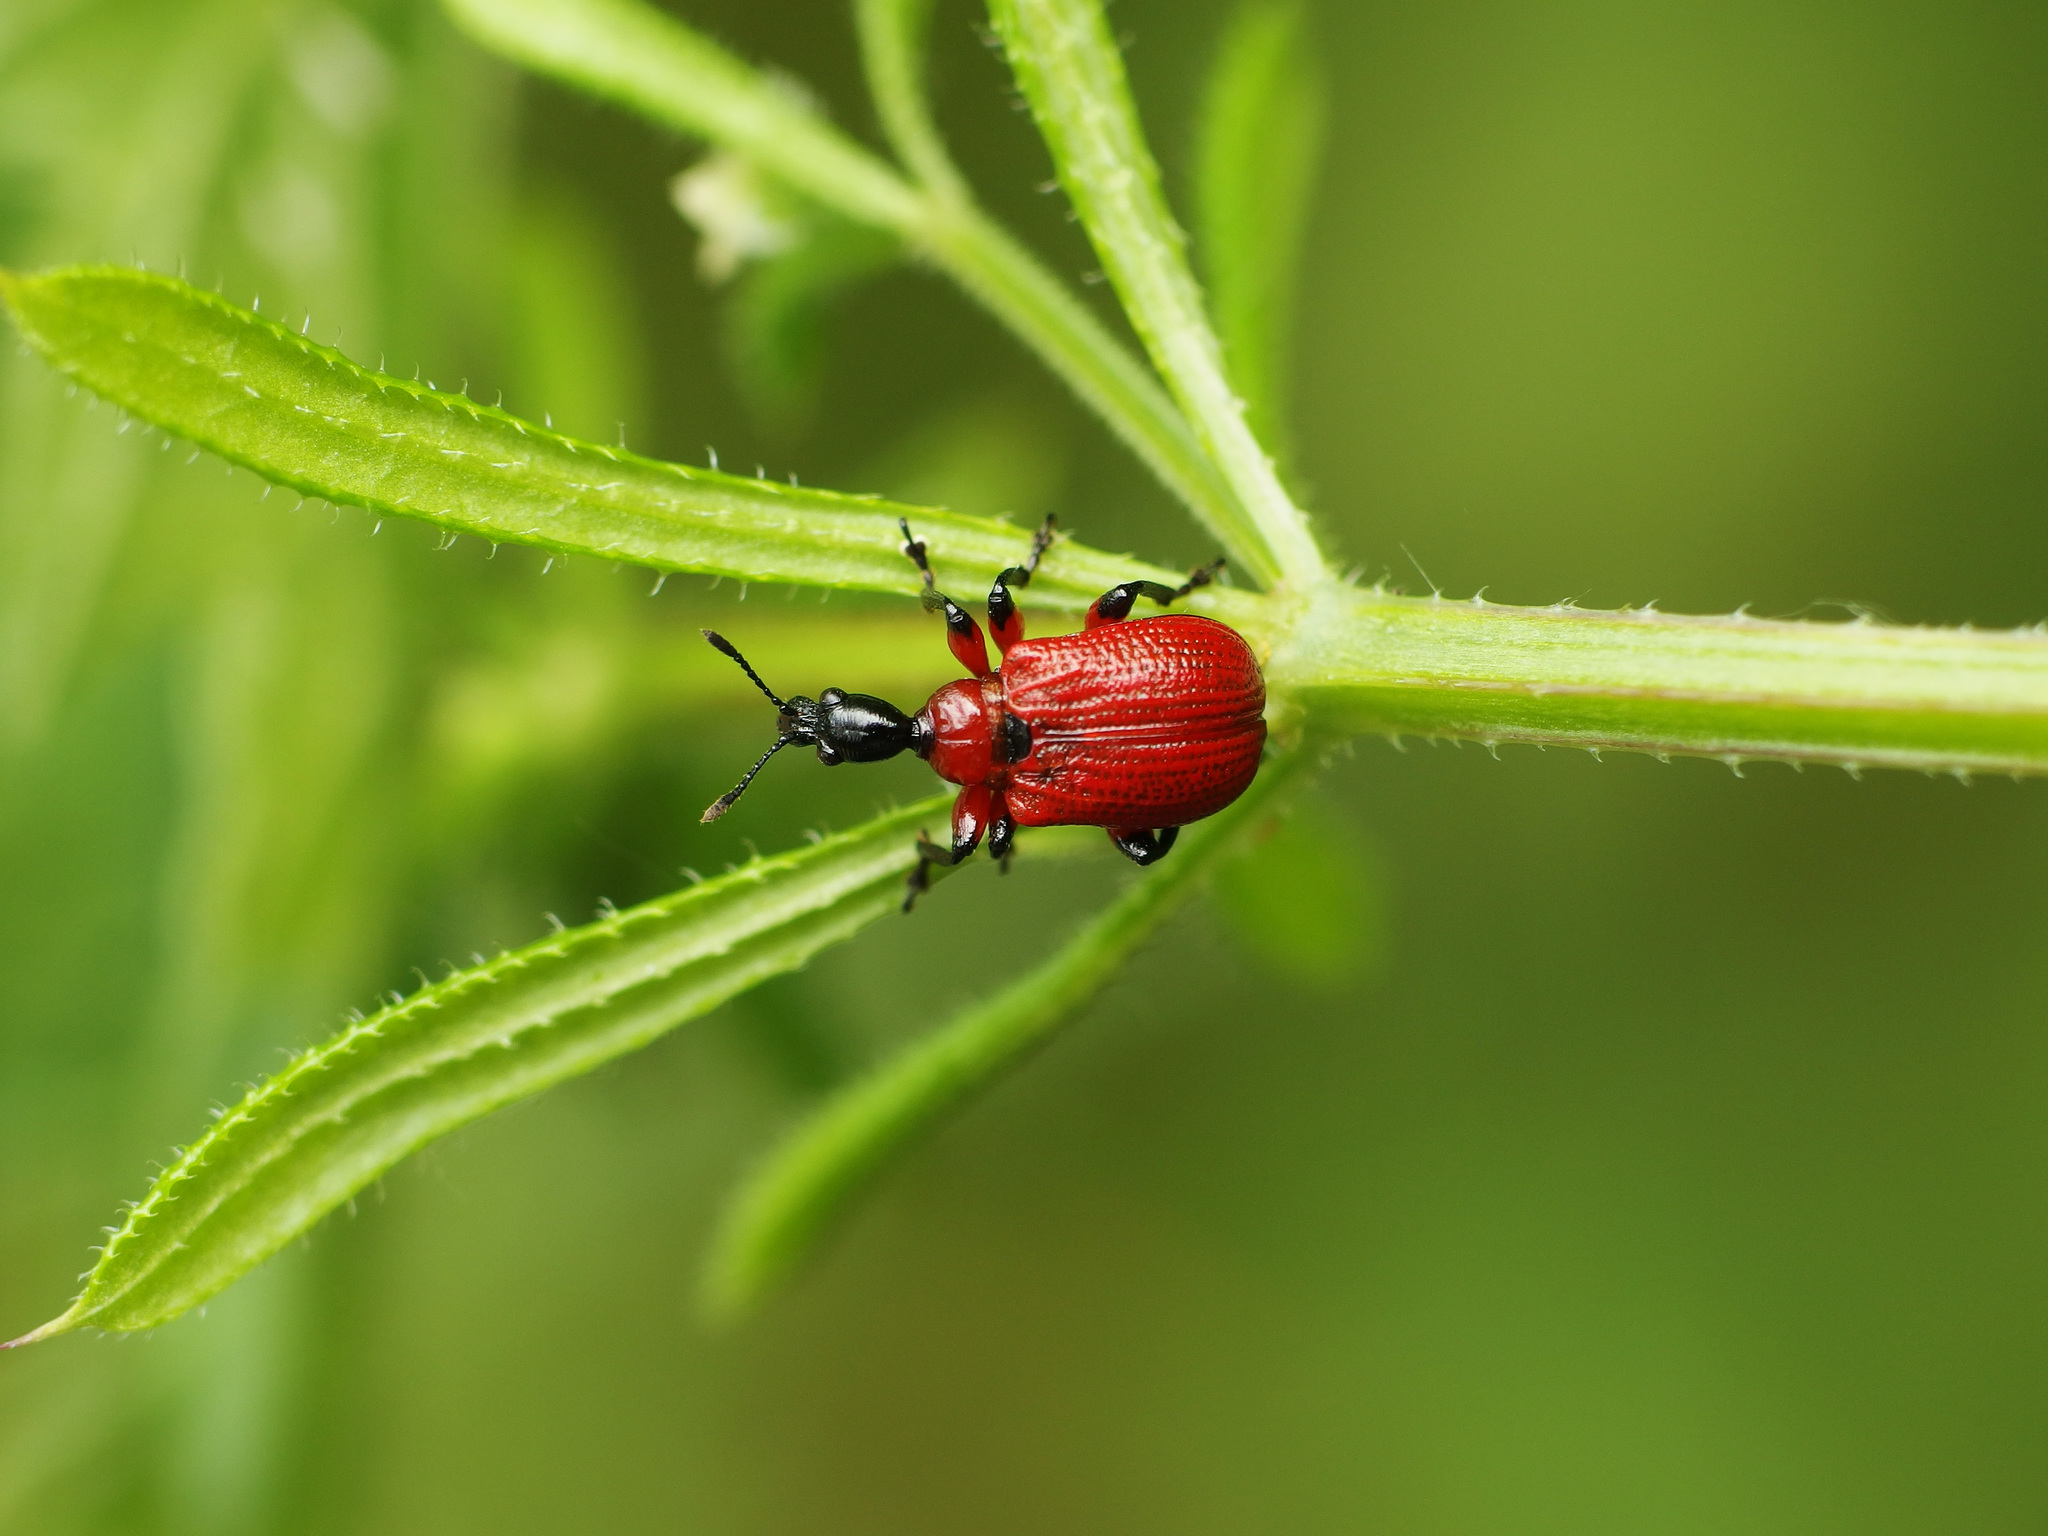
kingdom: Animalia
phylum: Arthropoda
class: Insecta
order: Coleoptera
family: Attelabidae
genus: Apoderus
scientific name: Apoderus coryli
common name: Hazel leaf roller
